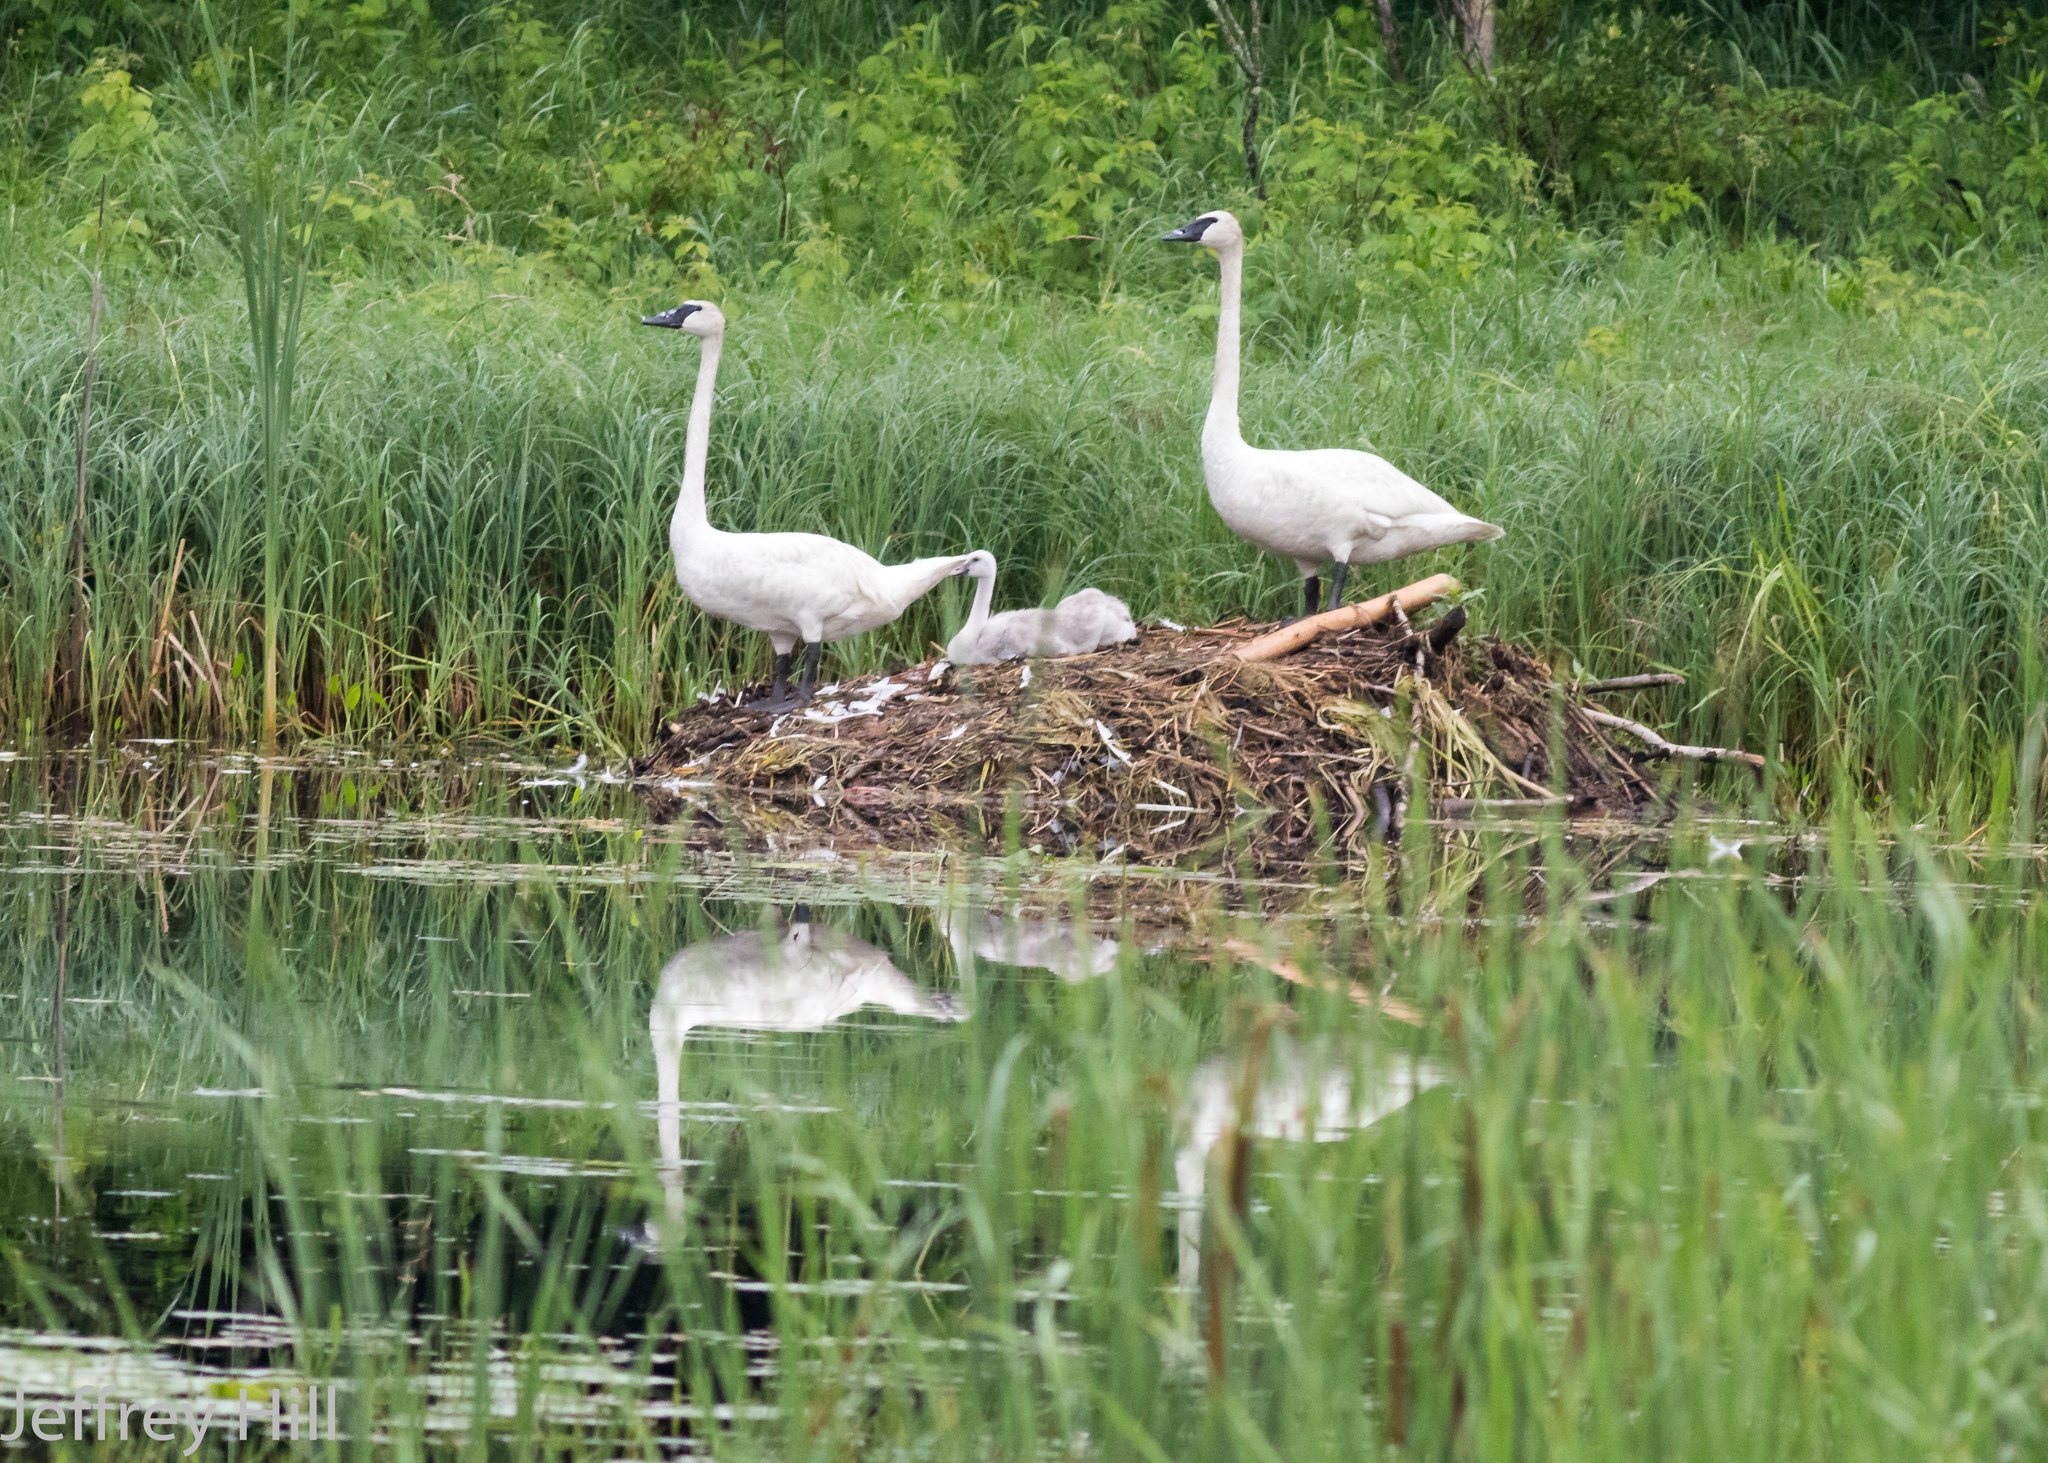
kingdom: Animalia
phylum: Chordata
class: Aves
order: Anseriformes
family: Anatidae
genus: Cygnus
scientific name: Cygnus buccinator
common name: Trumpeter swan
